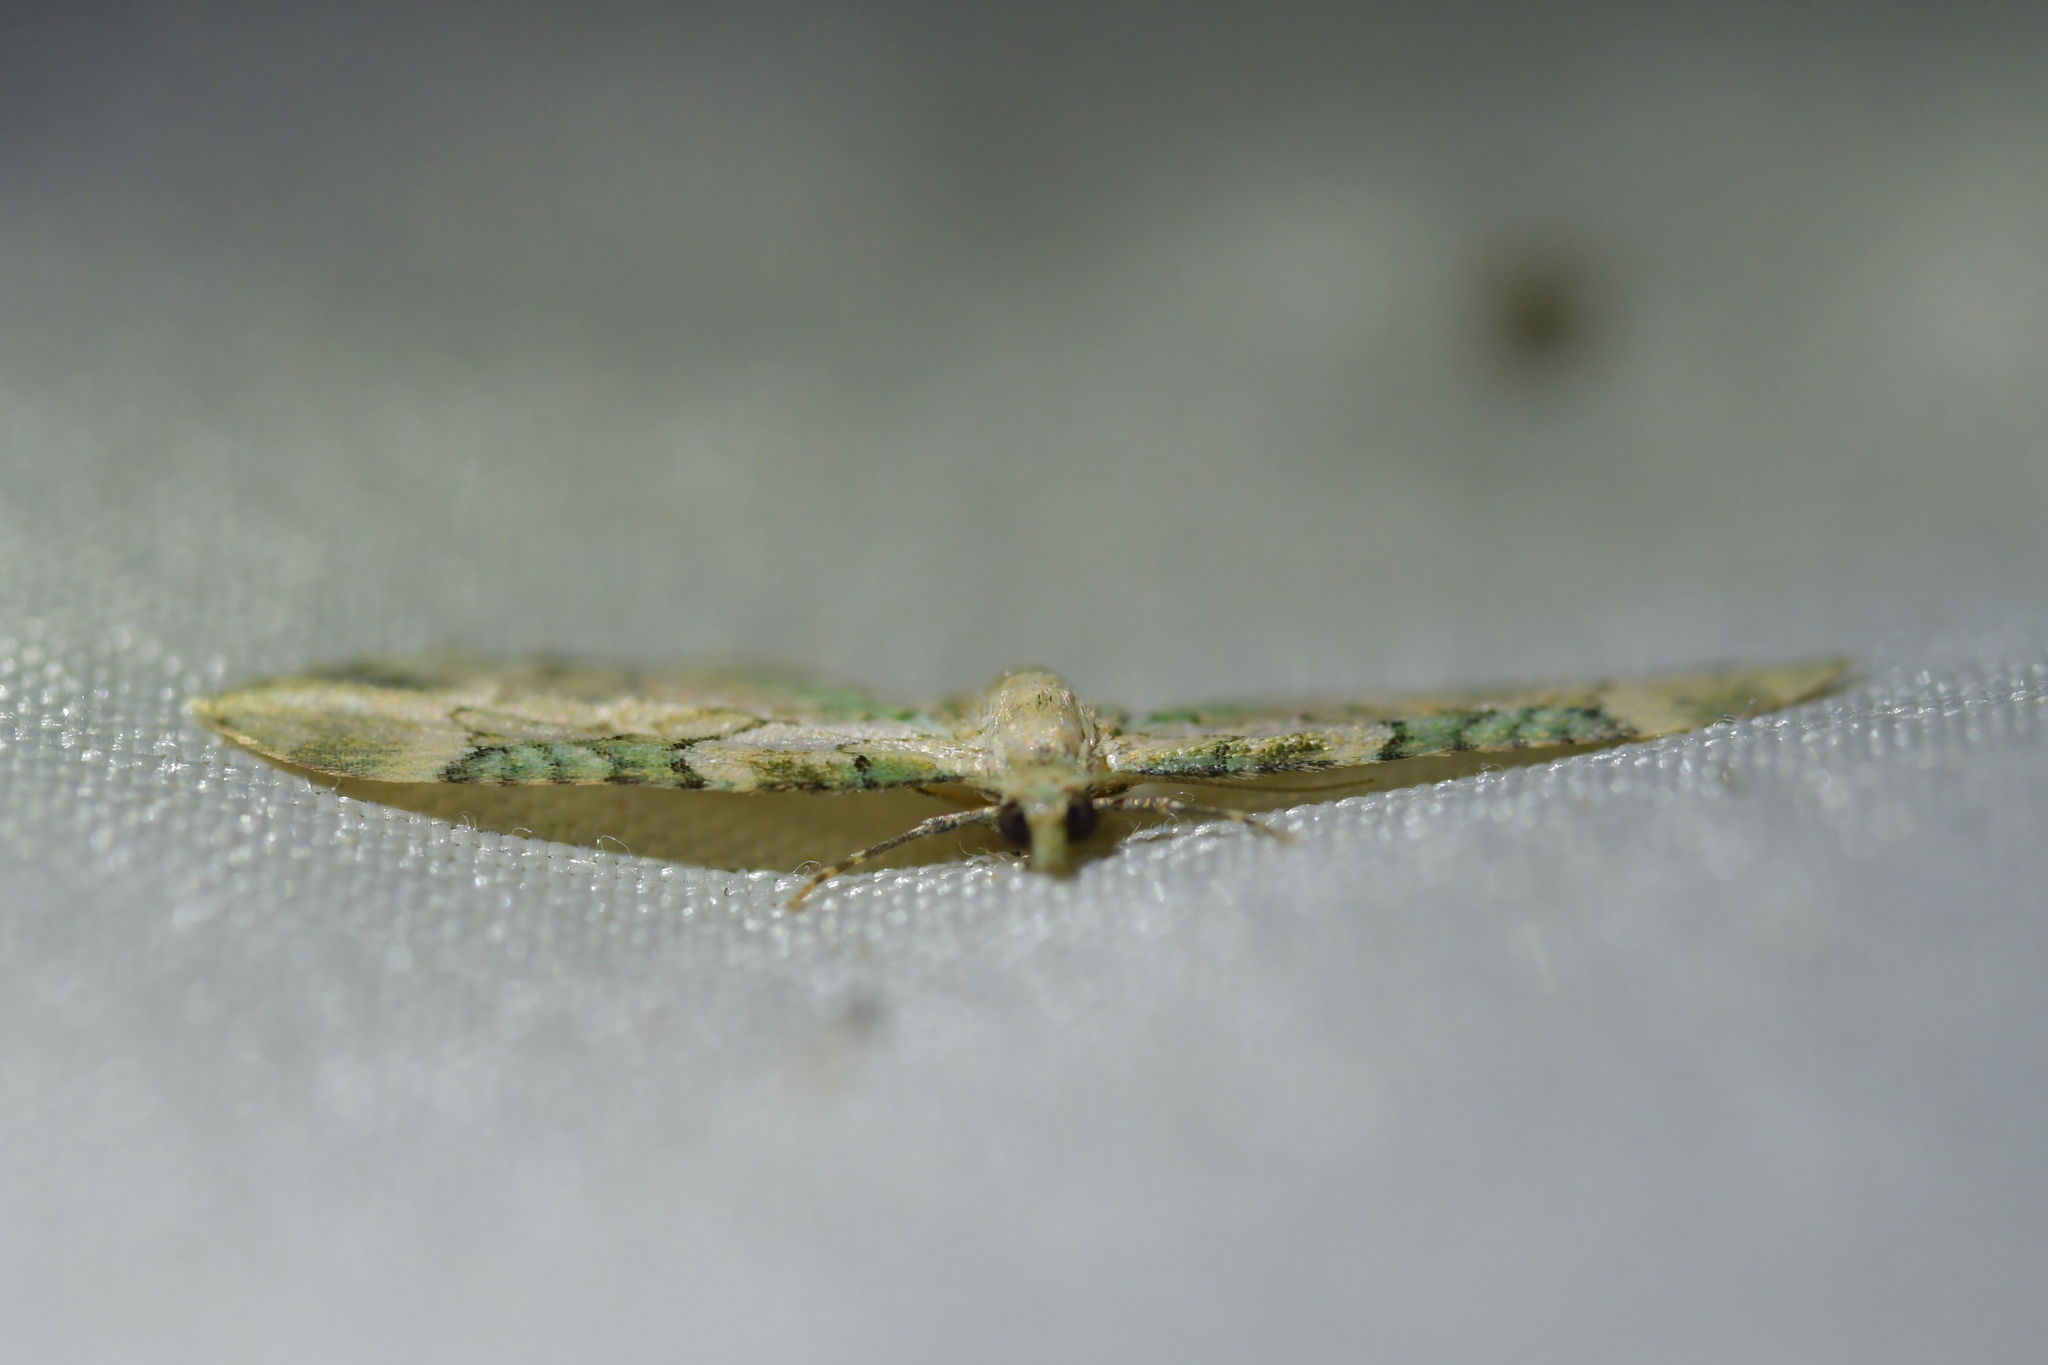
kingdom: Animalia
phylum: Arthropoda
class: Insecta
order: Lepidoptera
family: Geometridae
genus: Chloroclystis
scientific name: Chloroclystis
